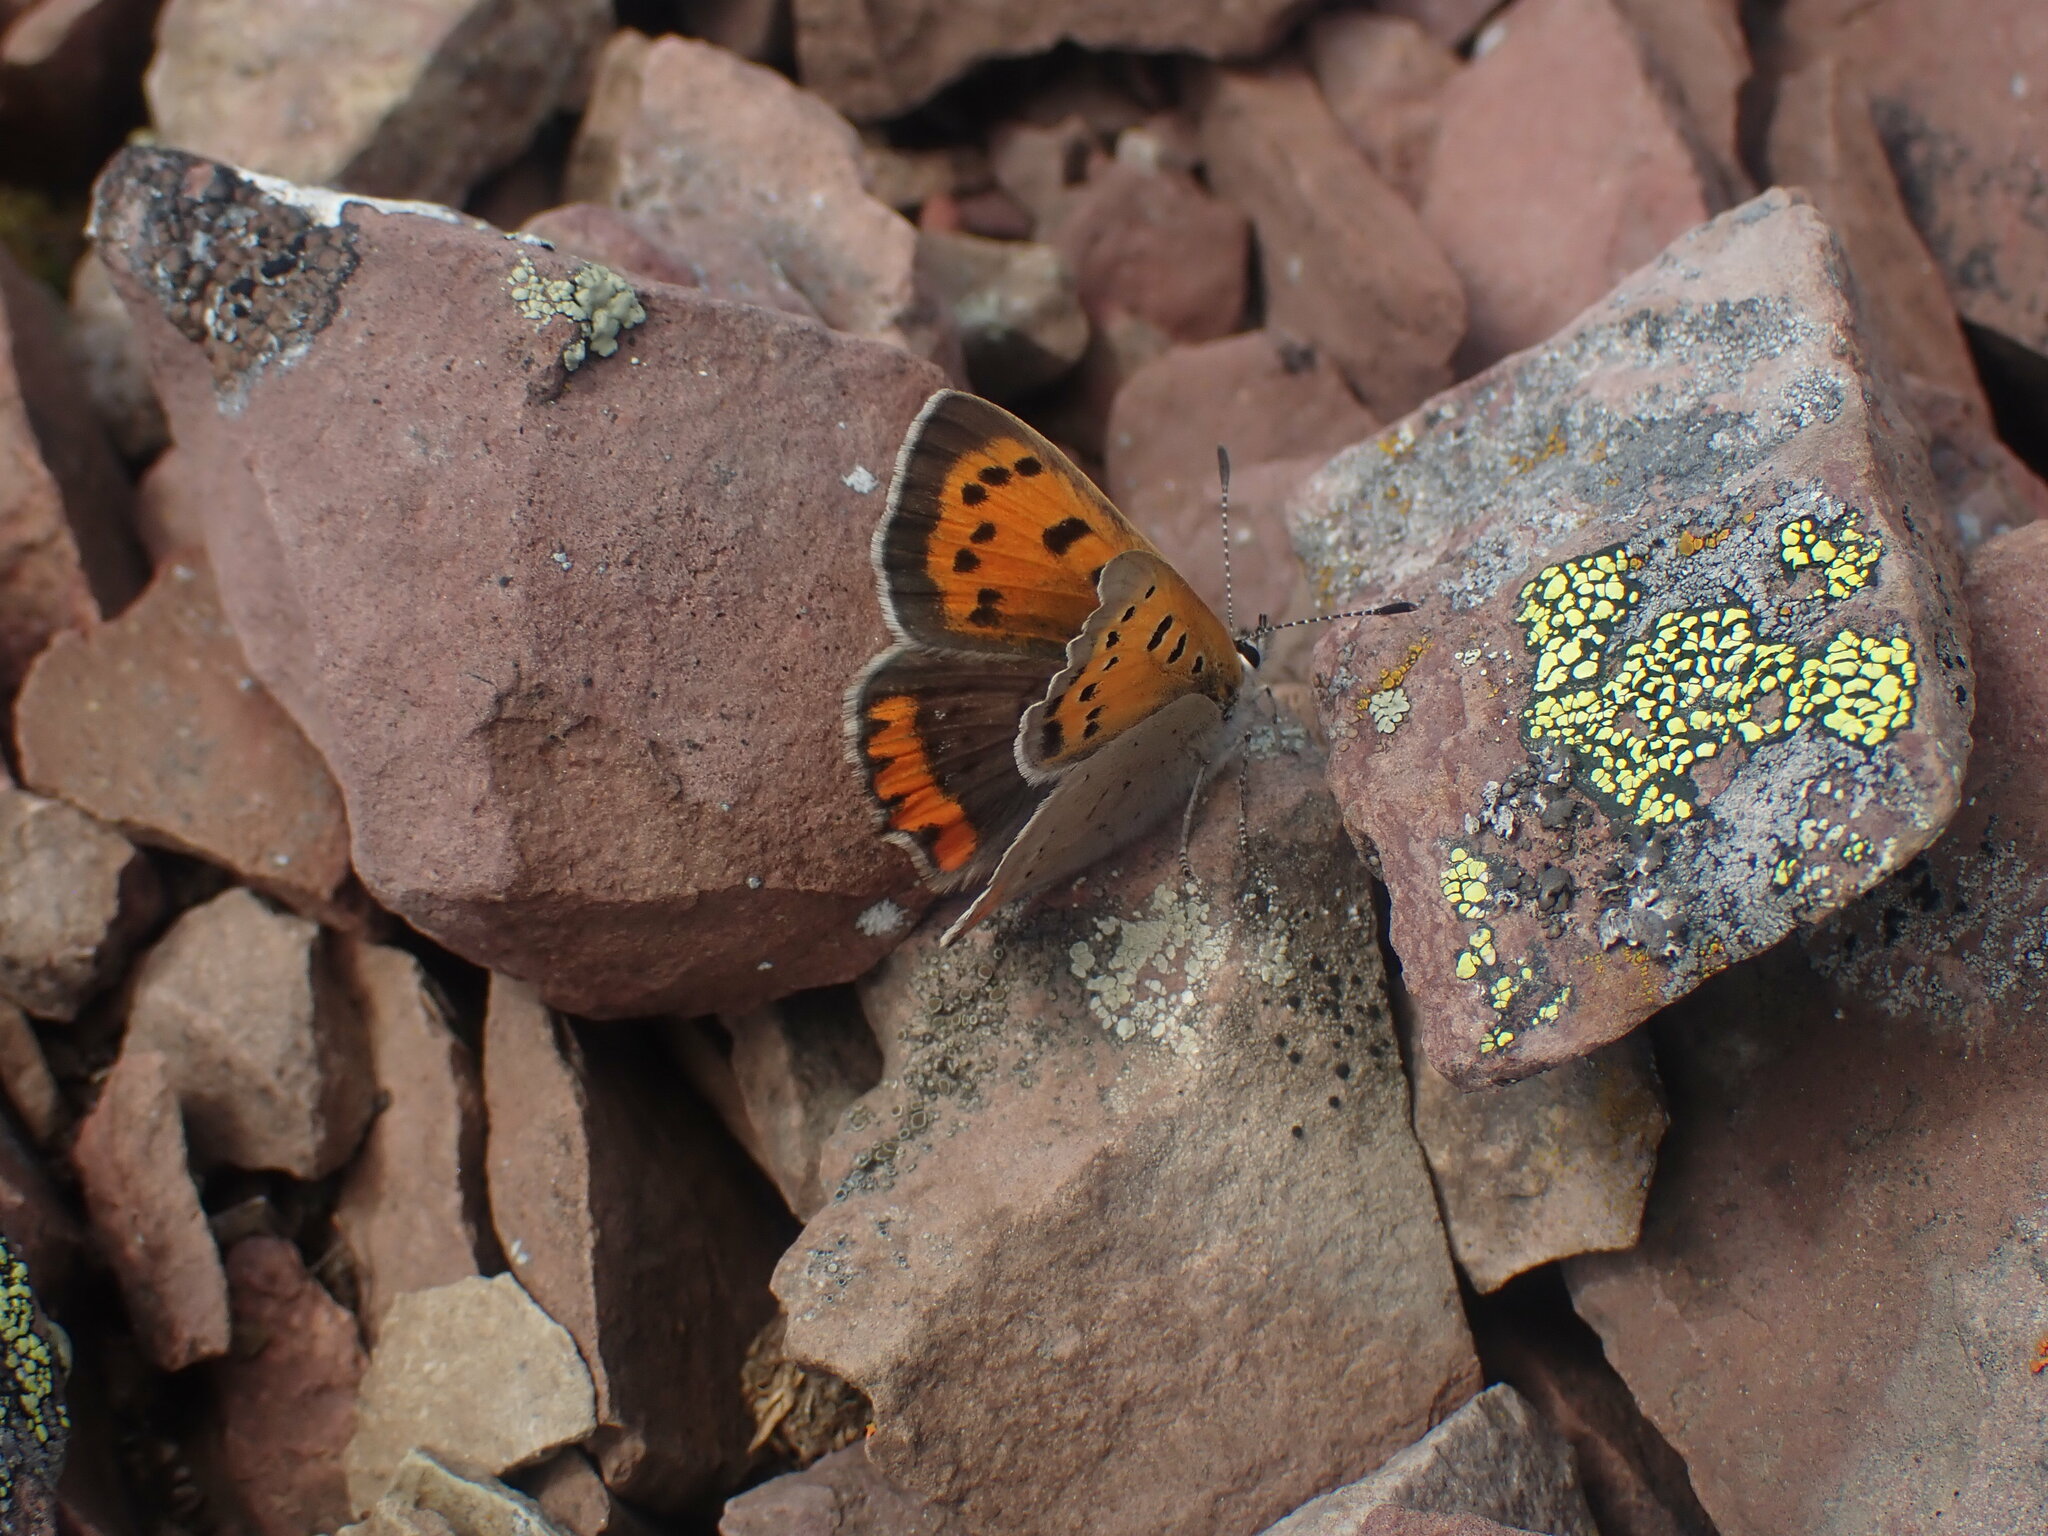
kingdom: Animalia
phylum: Arthropoda
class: Insecta
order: Lepidoptera
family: Lycaenidae
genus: Lycaena
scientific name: Lycaena hypophlaeas
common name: American copper
